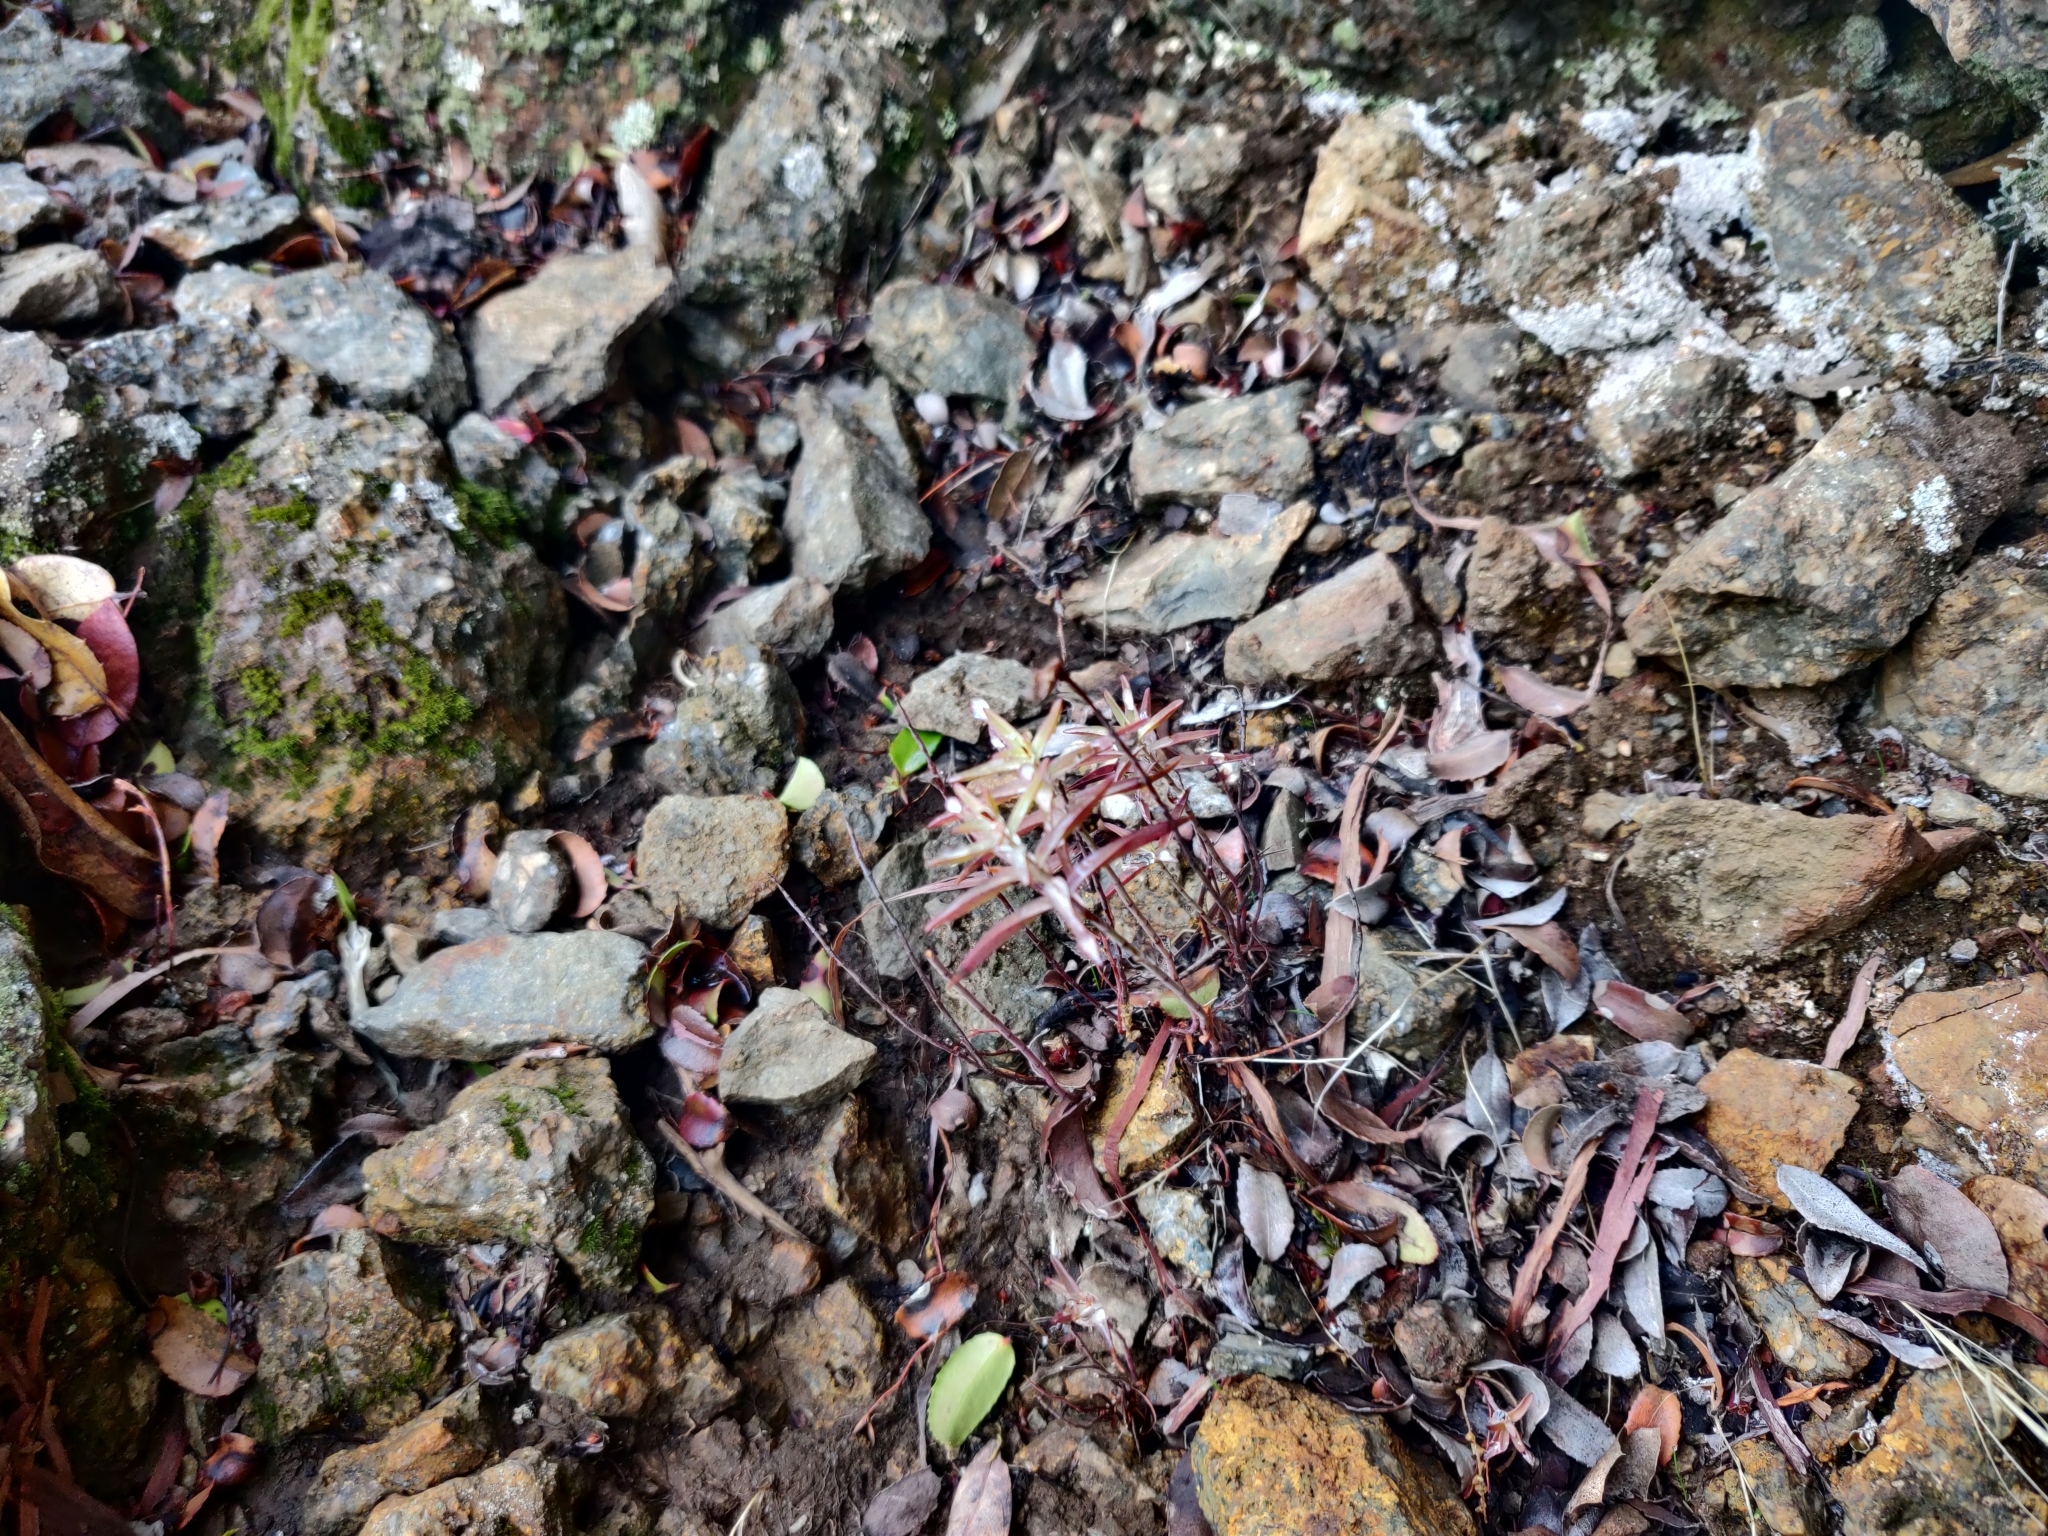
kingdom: Plantae
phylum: Tracheophyta
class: Magnoliopsida
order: Malpighiales
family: Hypericaceae
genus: Hypericum
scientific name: Hypericum concinnum
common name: Gold-wire
